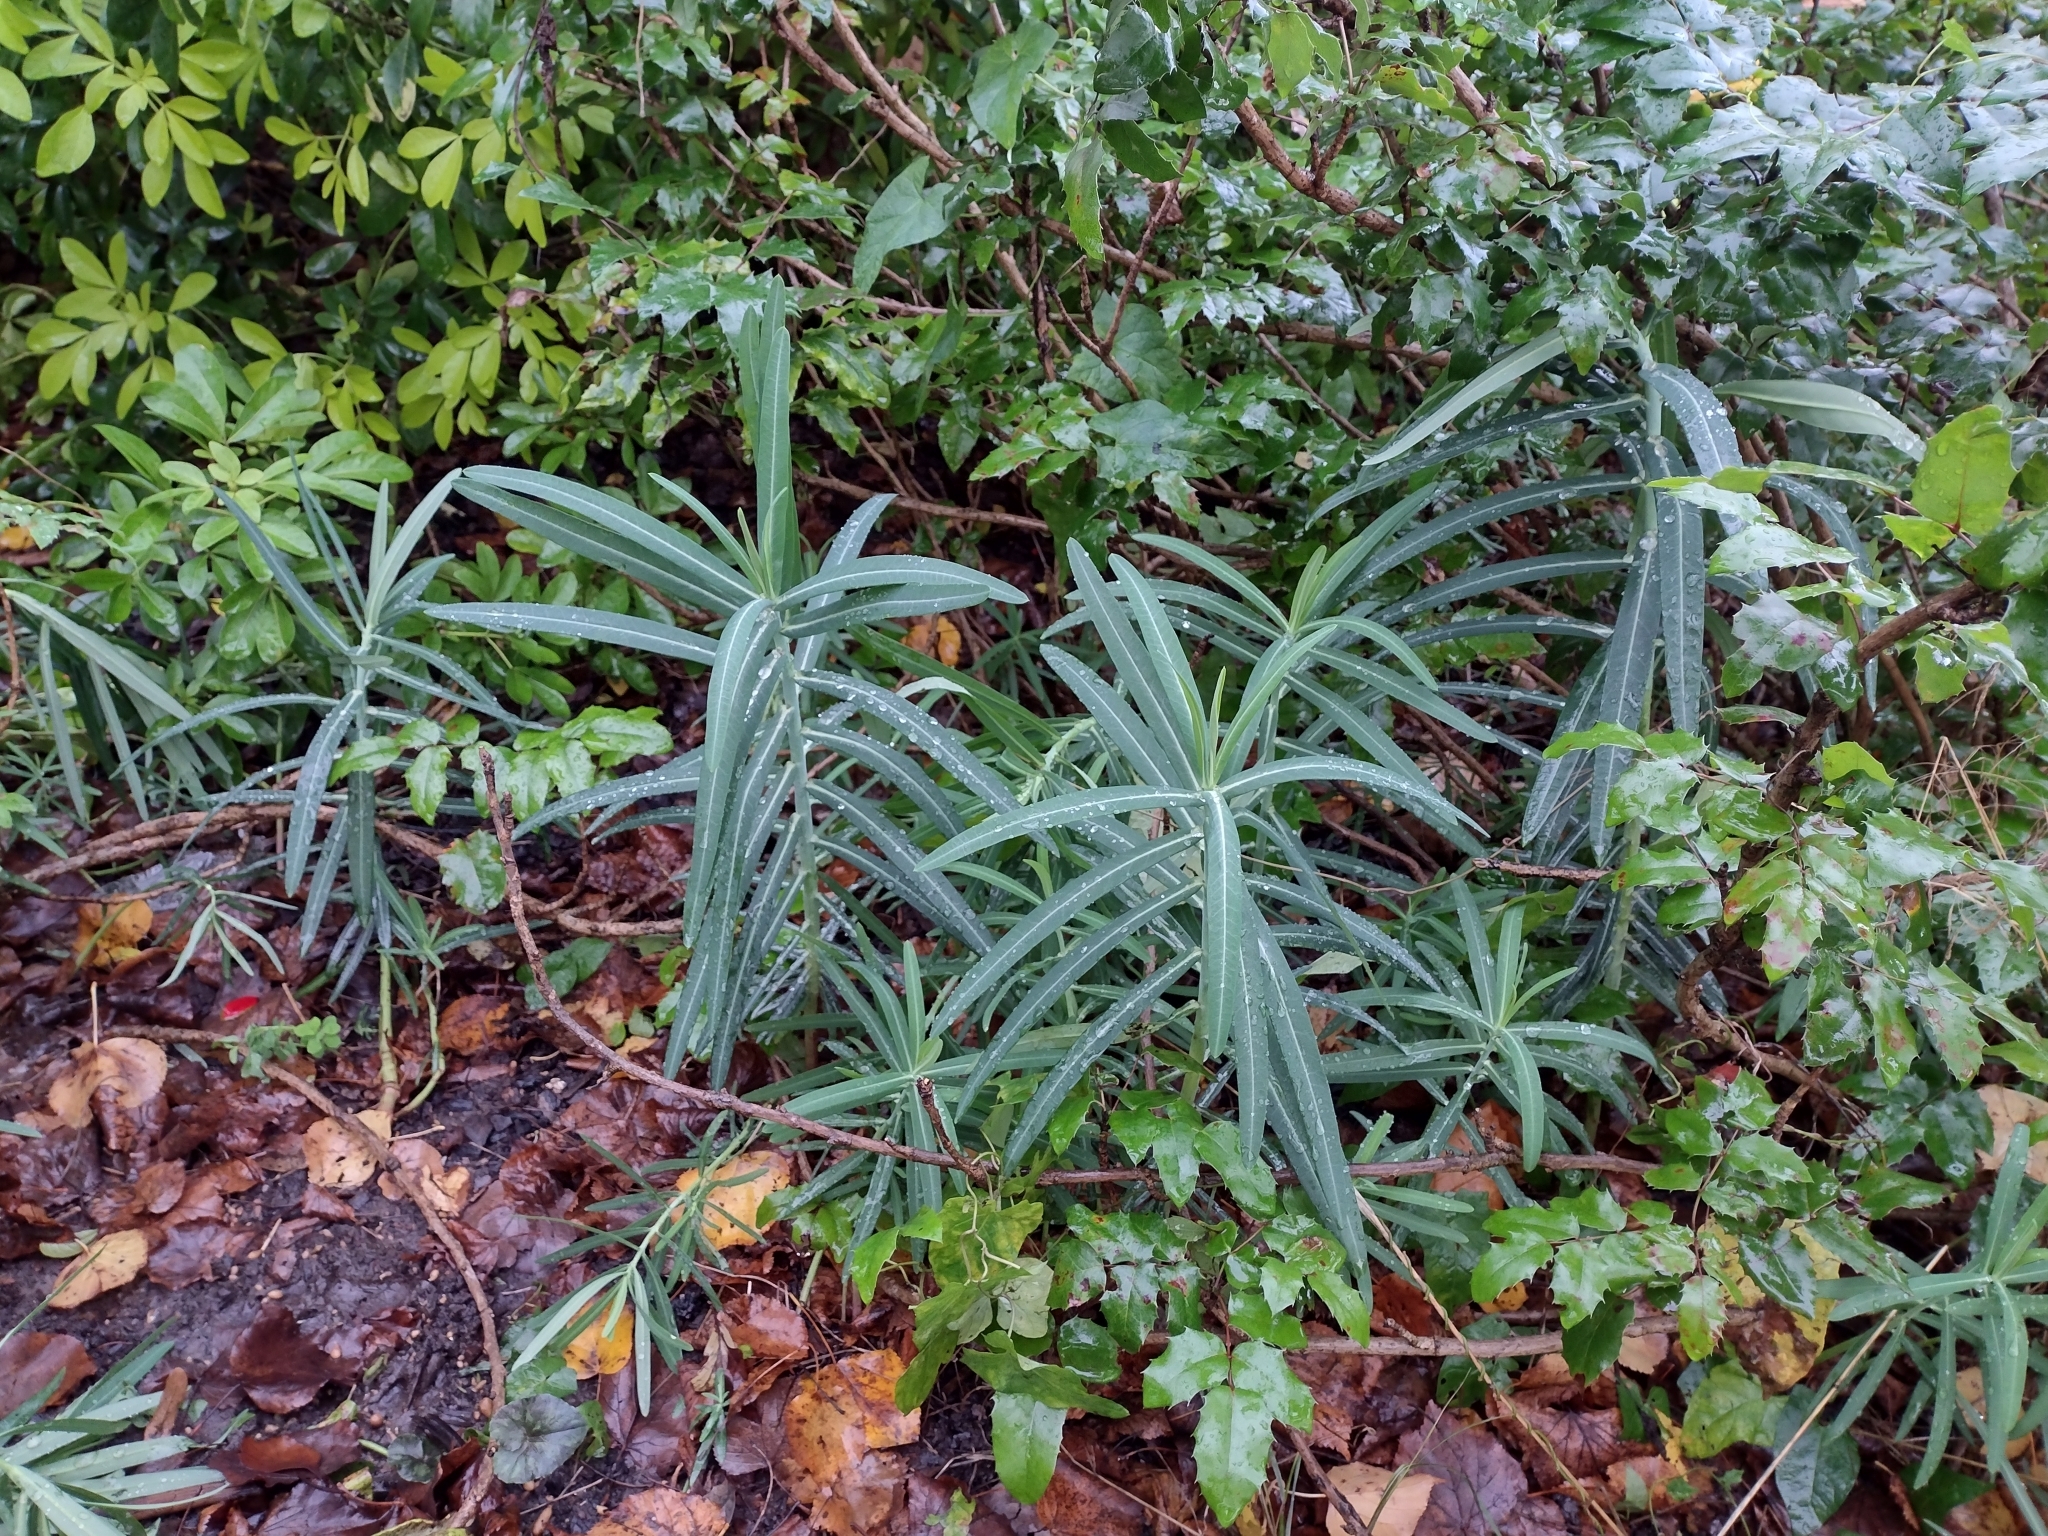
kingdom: Plantae
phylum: Tracheophyta
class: Magnoliopsida
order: Malpighiales
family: Euphorbiaceae
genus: Euphorbia
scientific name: Euphorbia lathyris
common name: Caper spurge
